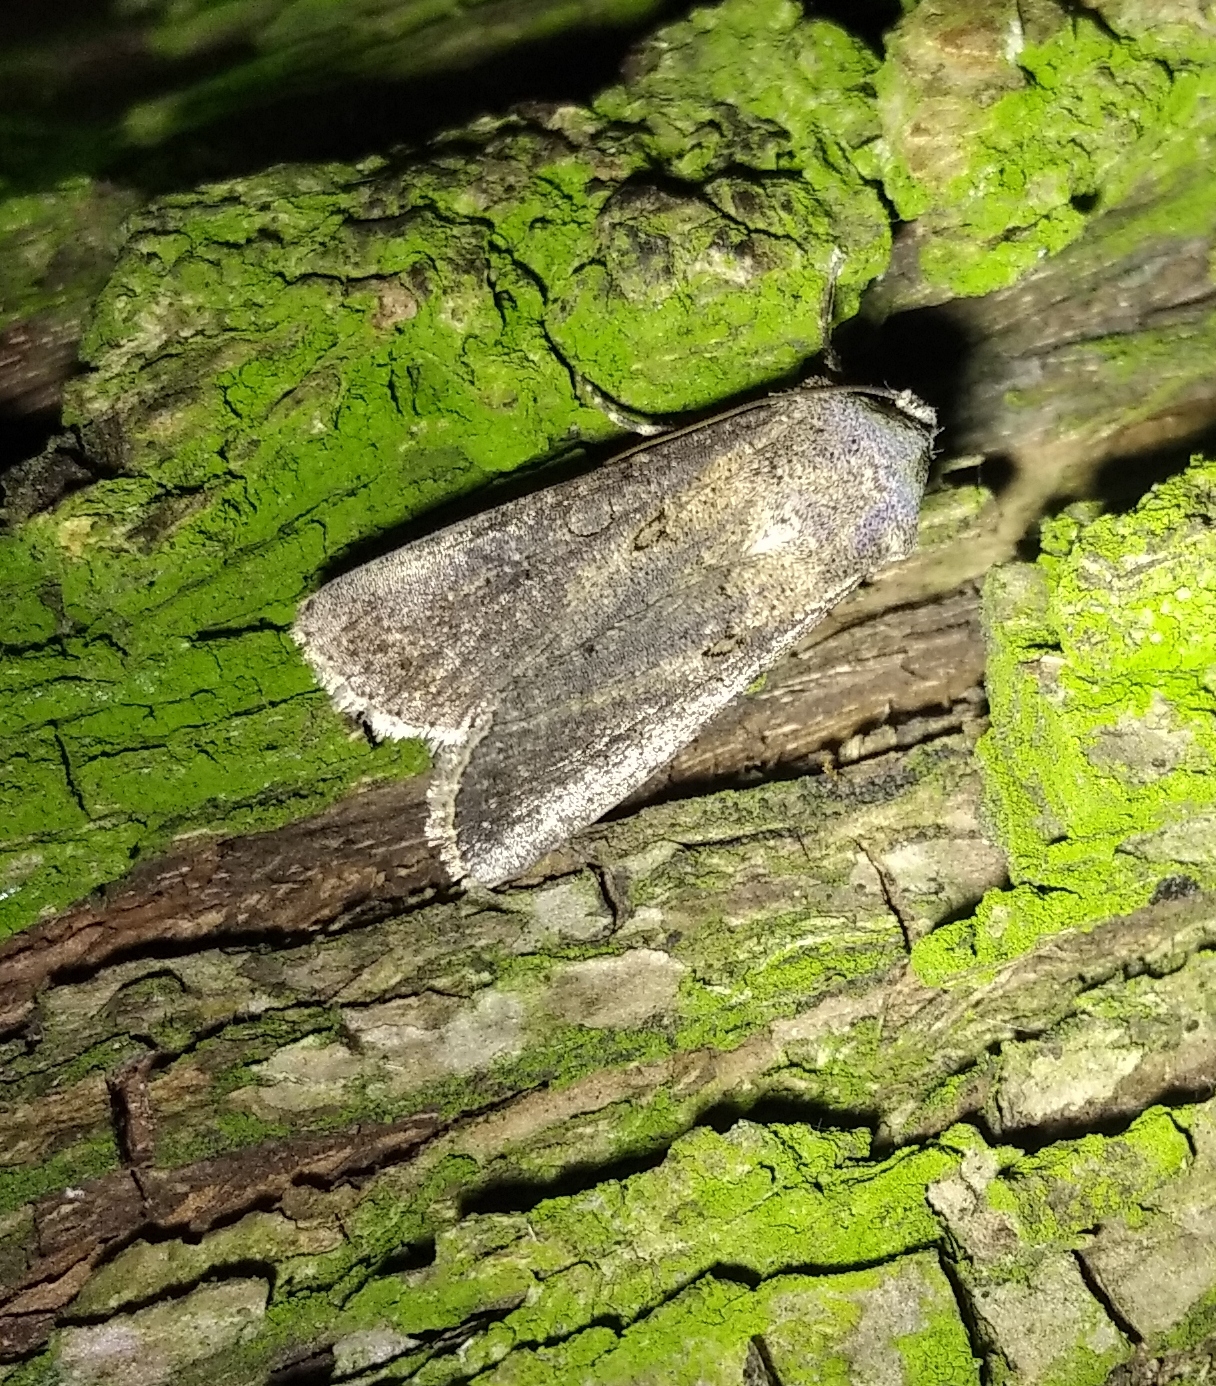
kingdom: Animalia
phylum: Arthropoda
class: Insecta
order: Lepidoptera
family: Noctuidae
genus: Agrotis
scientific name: Agrotis segetum
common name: Turnip moth
